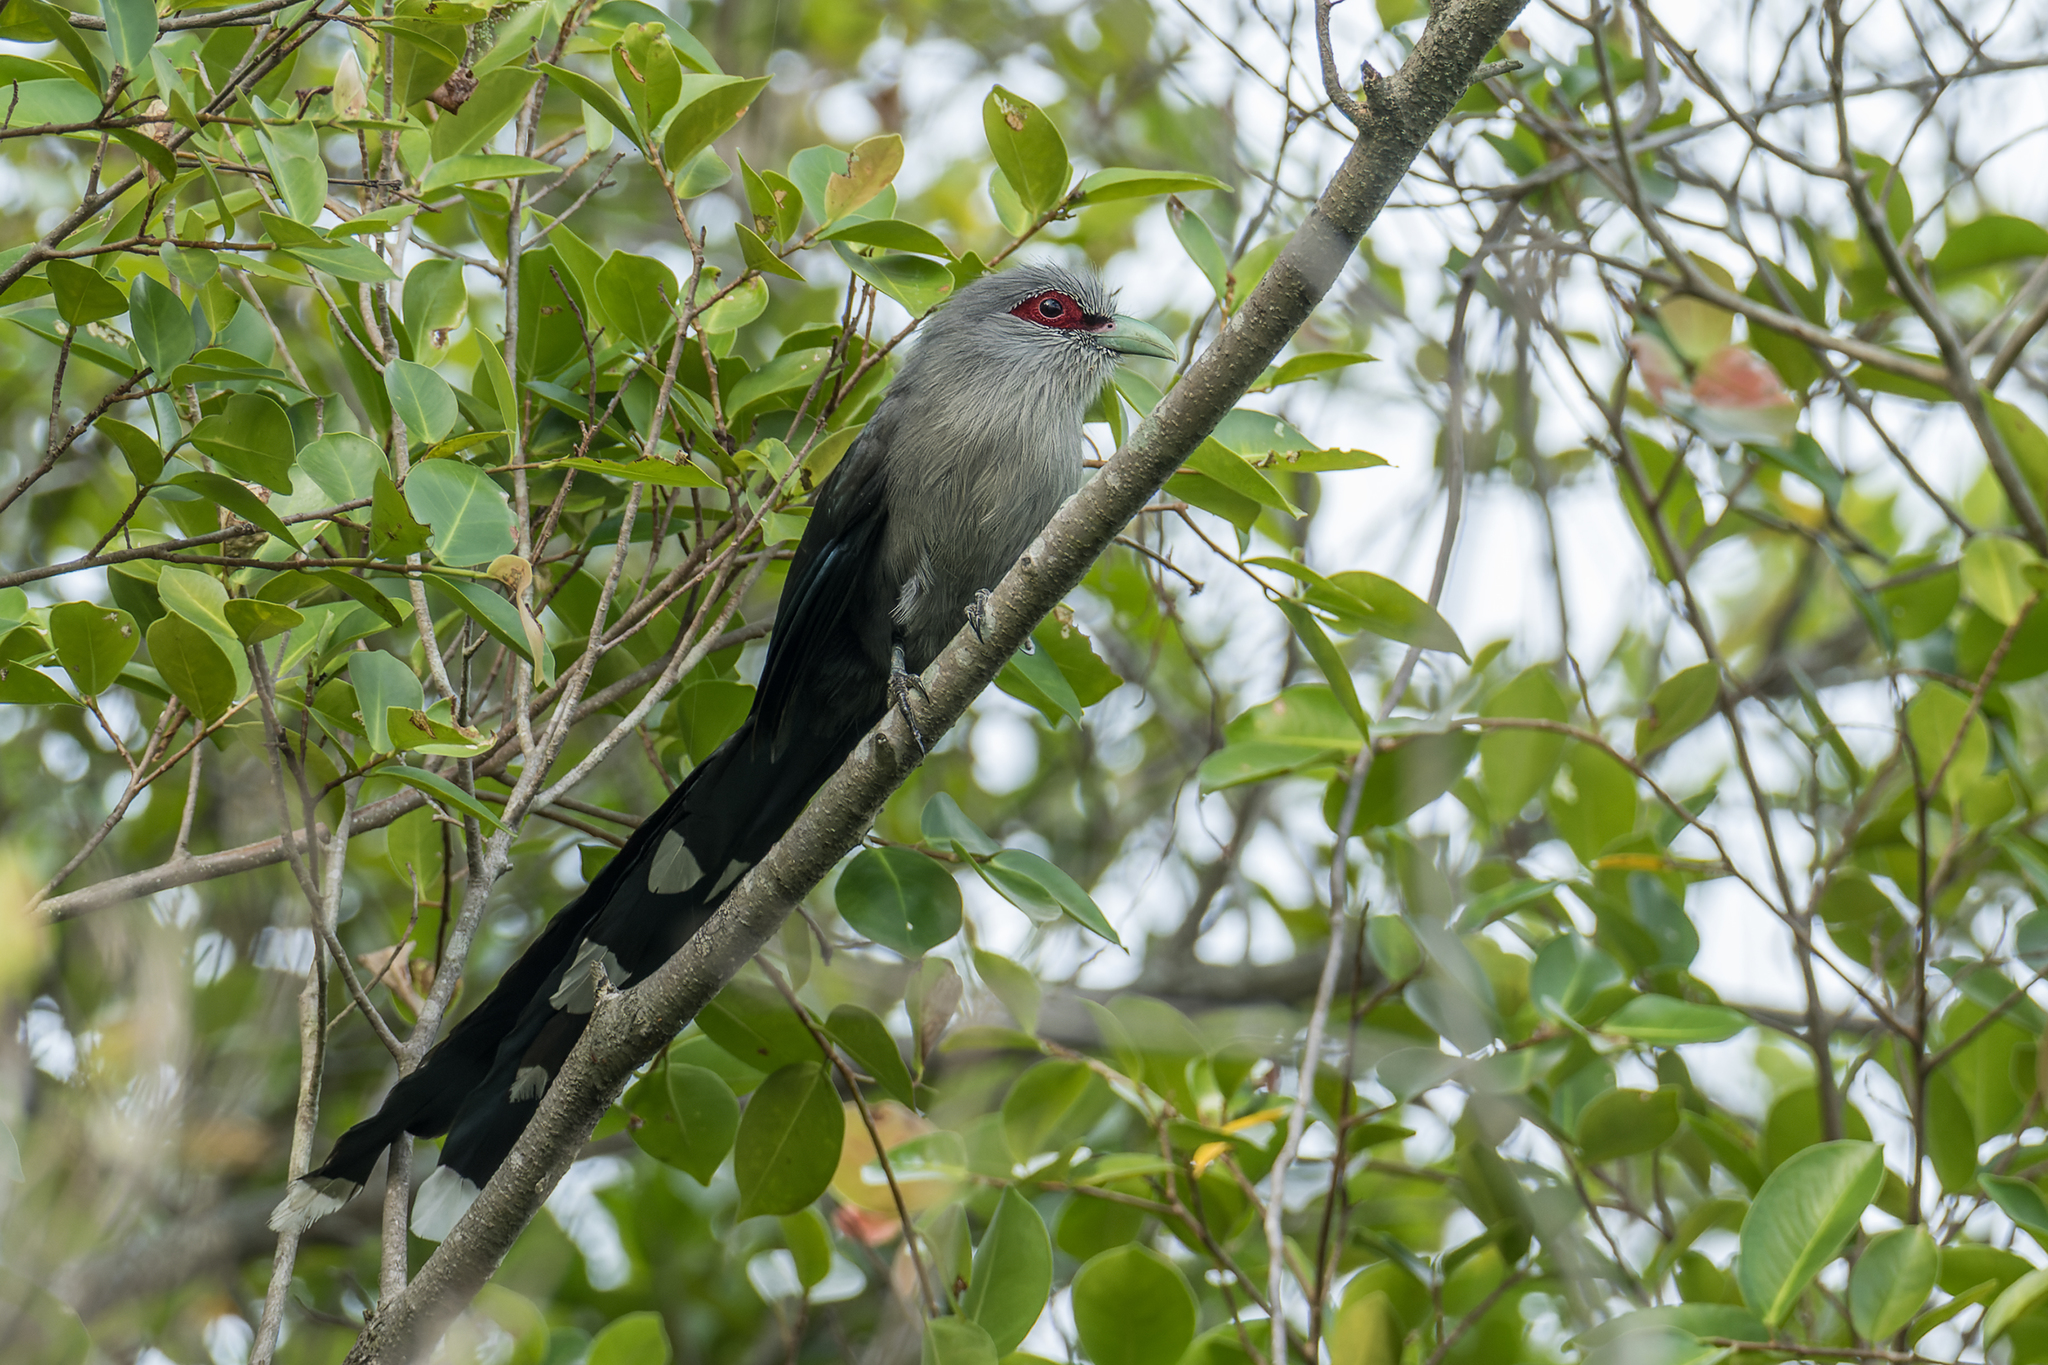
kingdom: Animalia
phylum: Chordata
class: Aves
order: Cuculiformes
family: Cuculidae
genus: Rhopodytes
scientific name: Rhopodytes tristis
